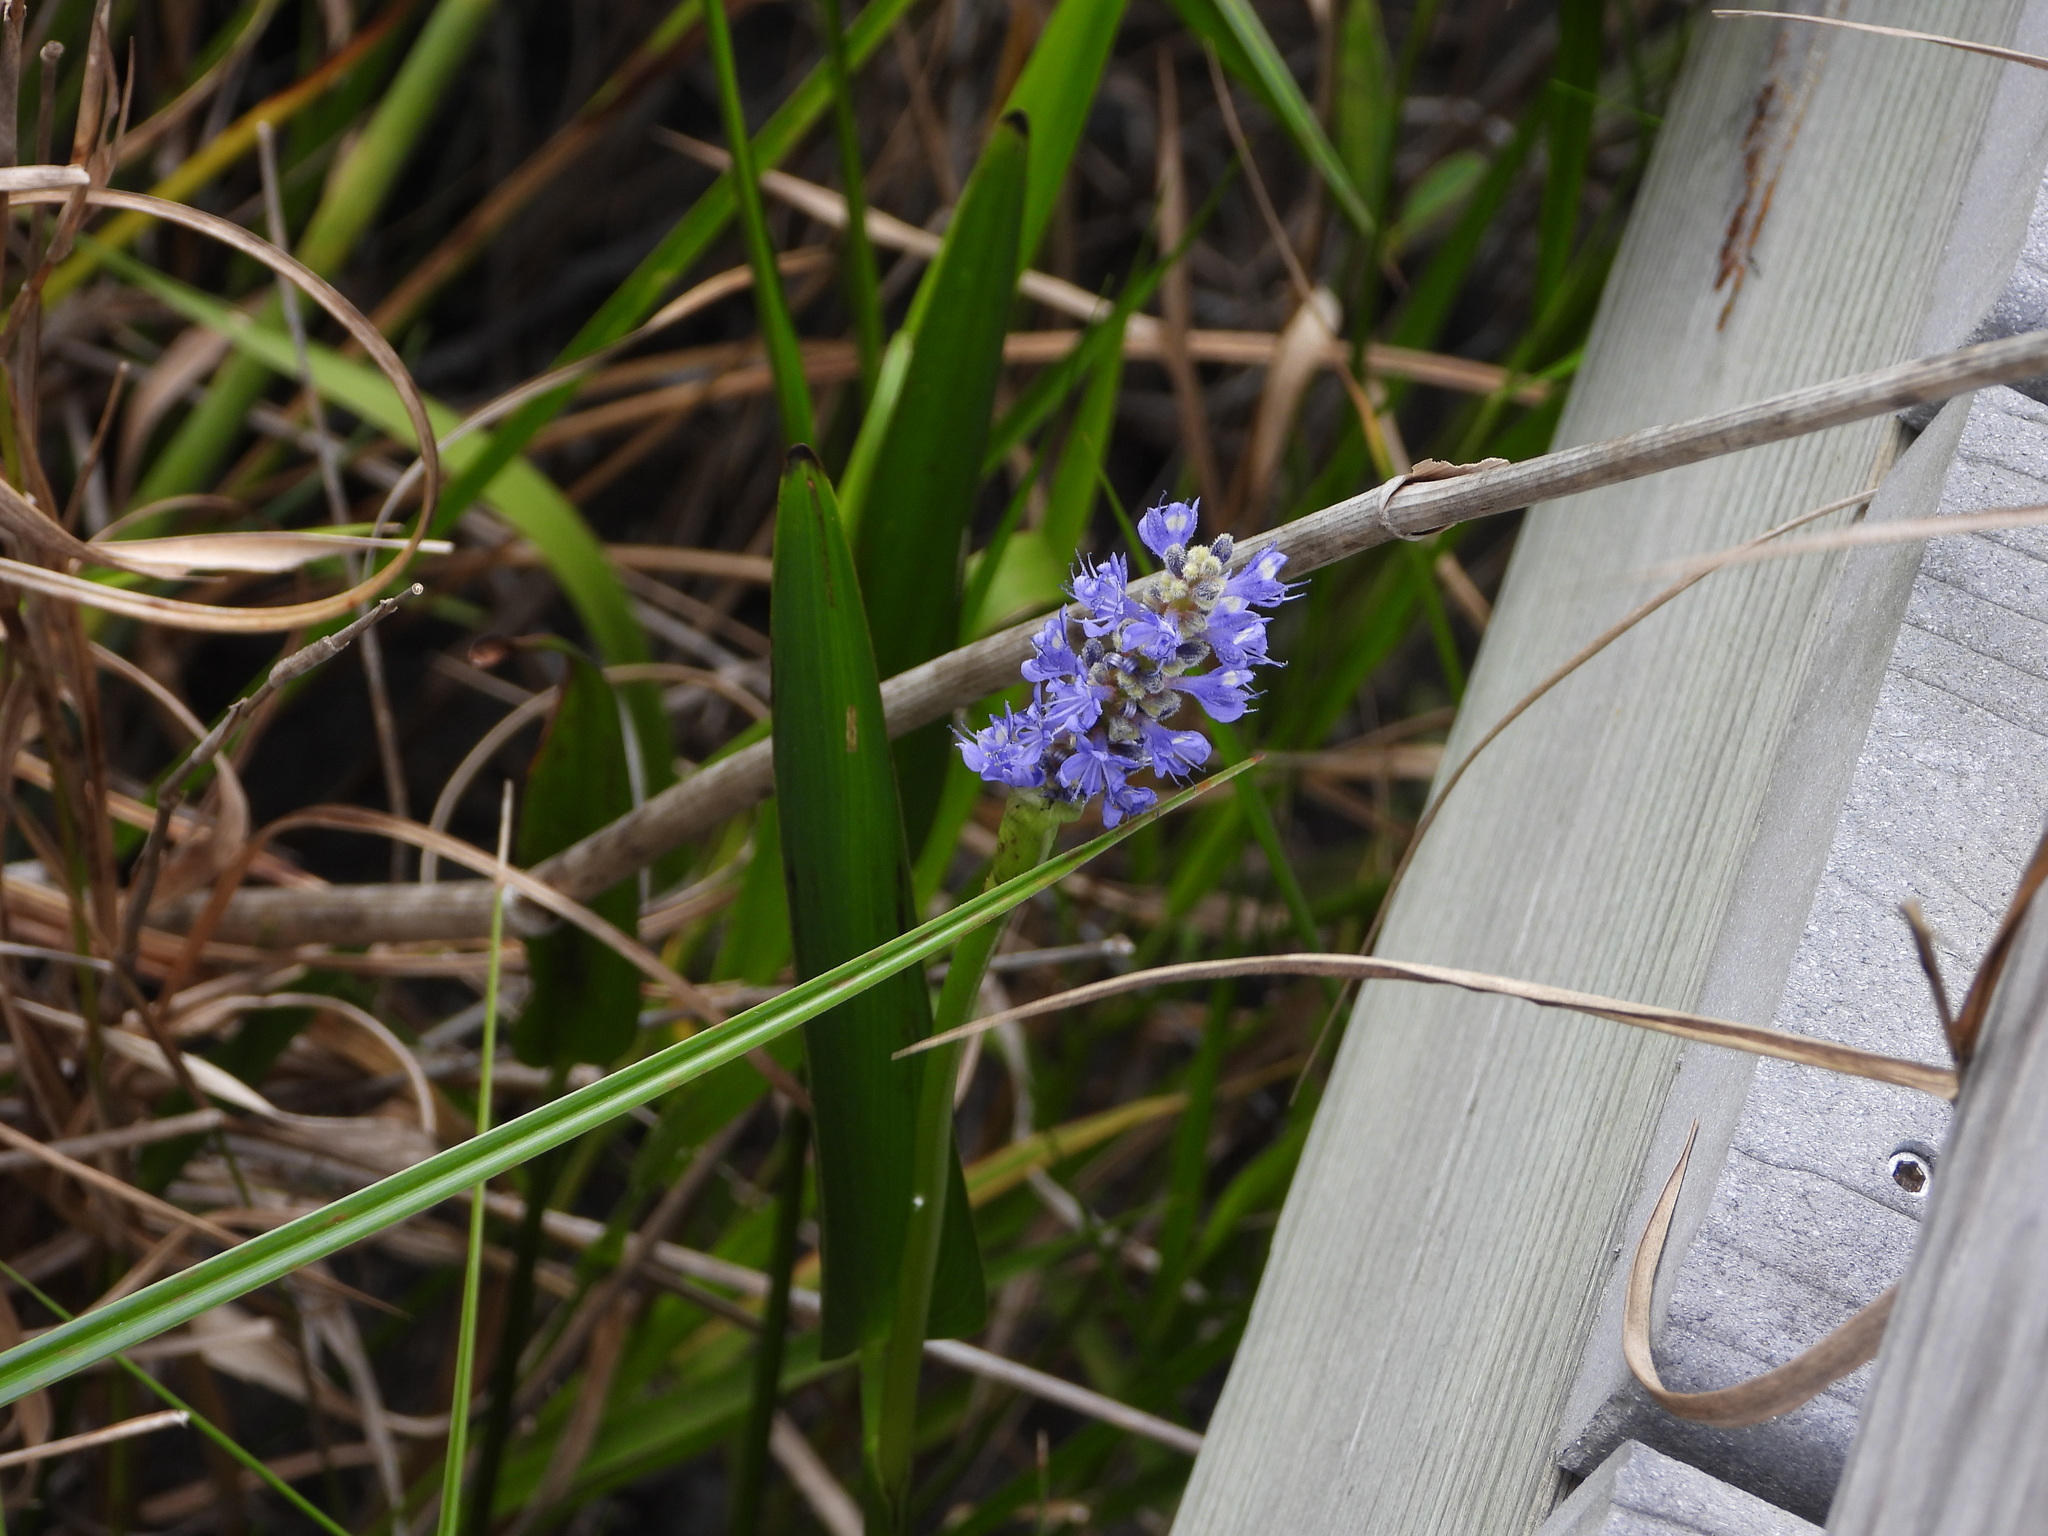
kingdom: Plantae
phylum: Tracheophyta
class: Liliopsida
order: Commelinales
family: Pontederiaceae
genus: Pontederia
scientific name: Pontederia cordata
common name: Pickerelweed
